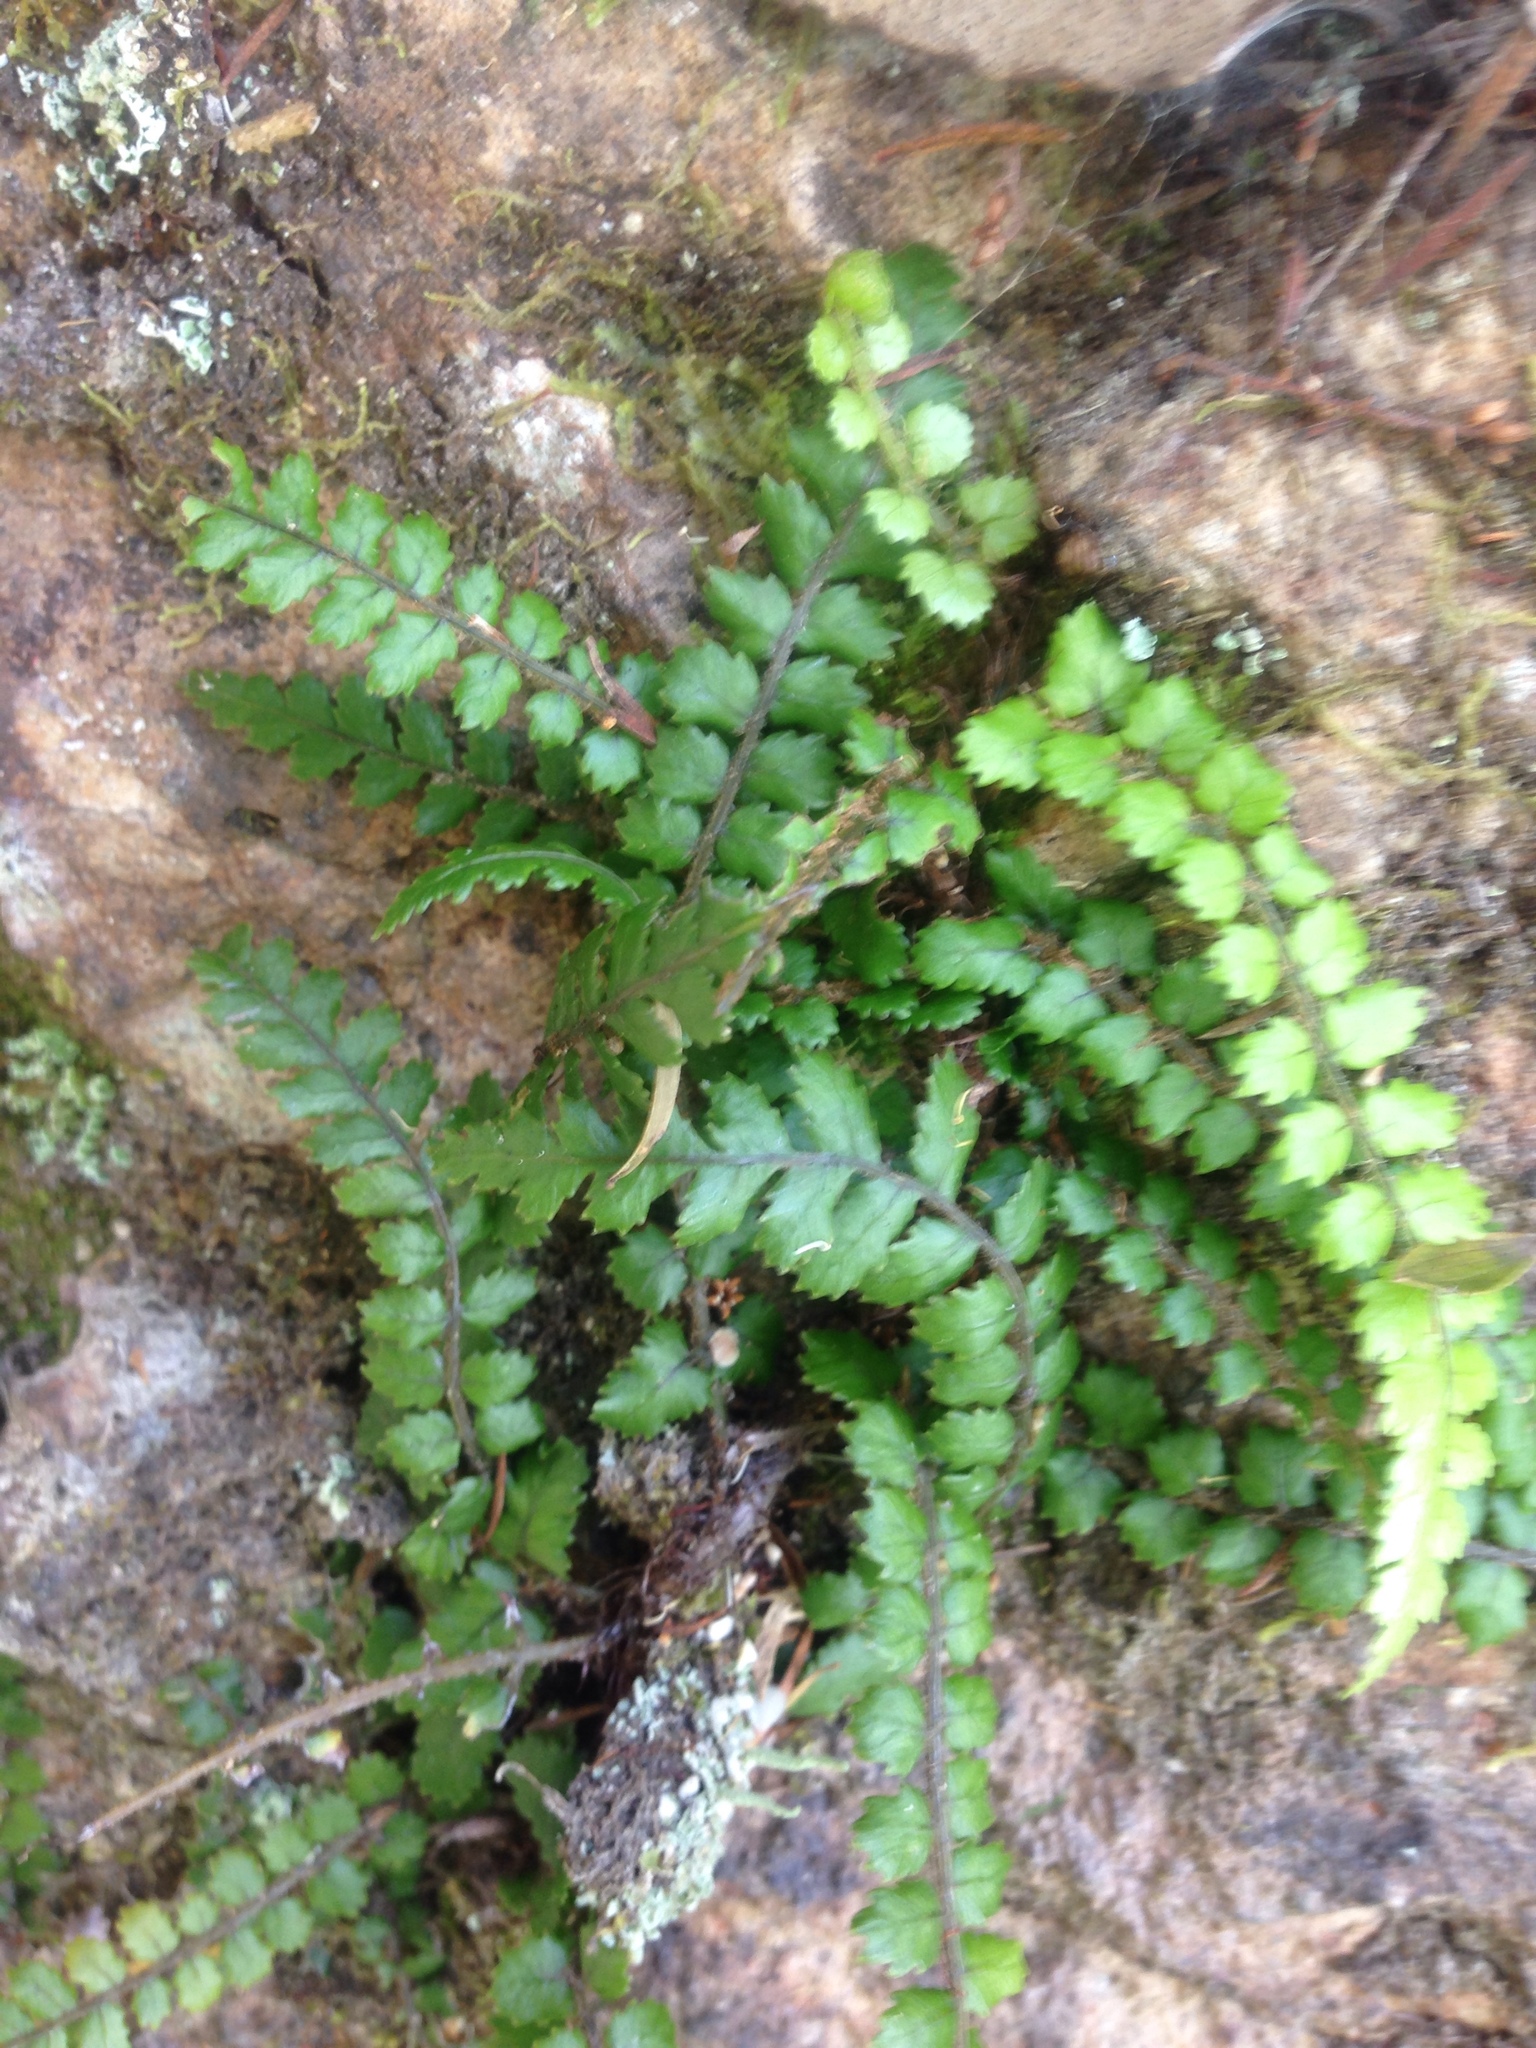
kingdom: Plantae
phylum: Tracheophyta
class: Polypodiopsida
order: Polypodiales
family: Blechnaceae
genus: Icarus
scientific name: Icarus filiformis
